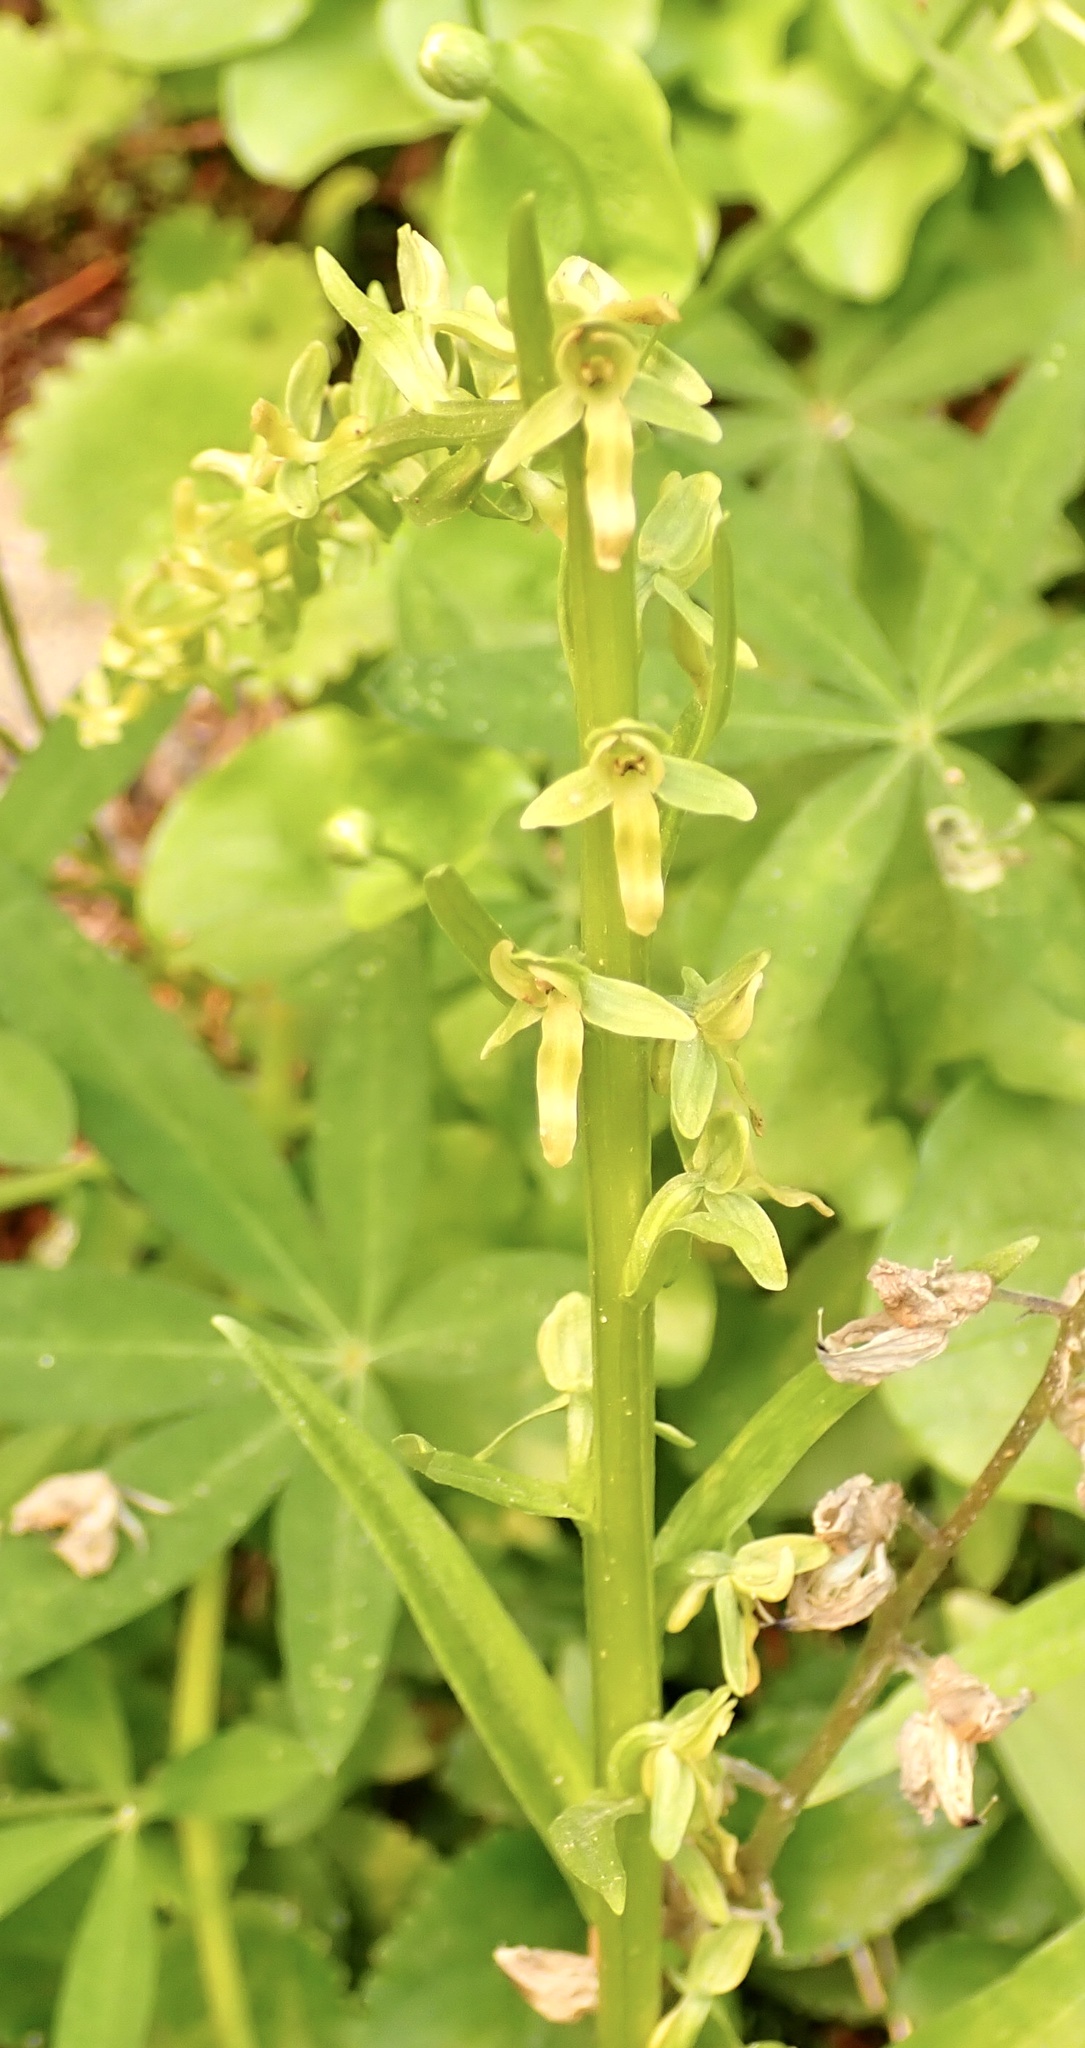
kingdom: Plantae
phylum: Tracheophyta
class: Liliopsida
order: Asparagales
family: Orchidaceae
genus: Platanthera
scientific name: Platanthera stricta
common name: Slender bog orchid
